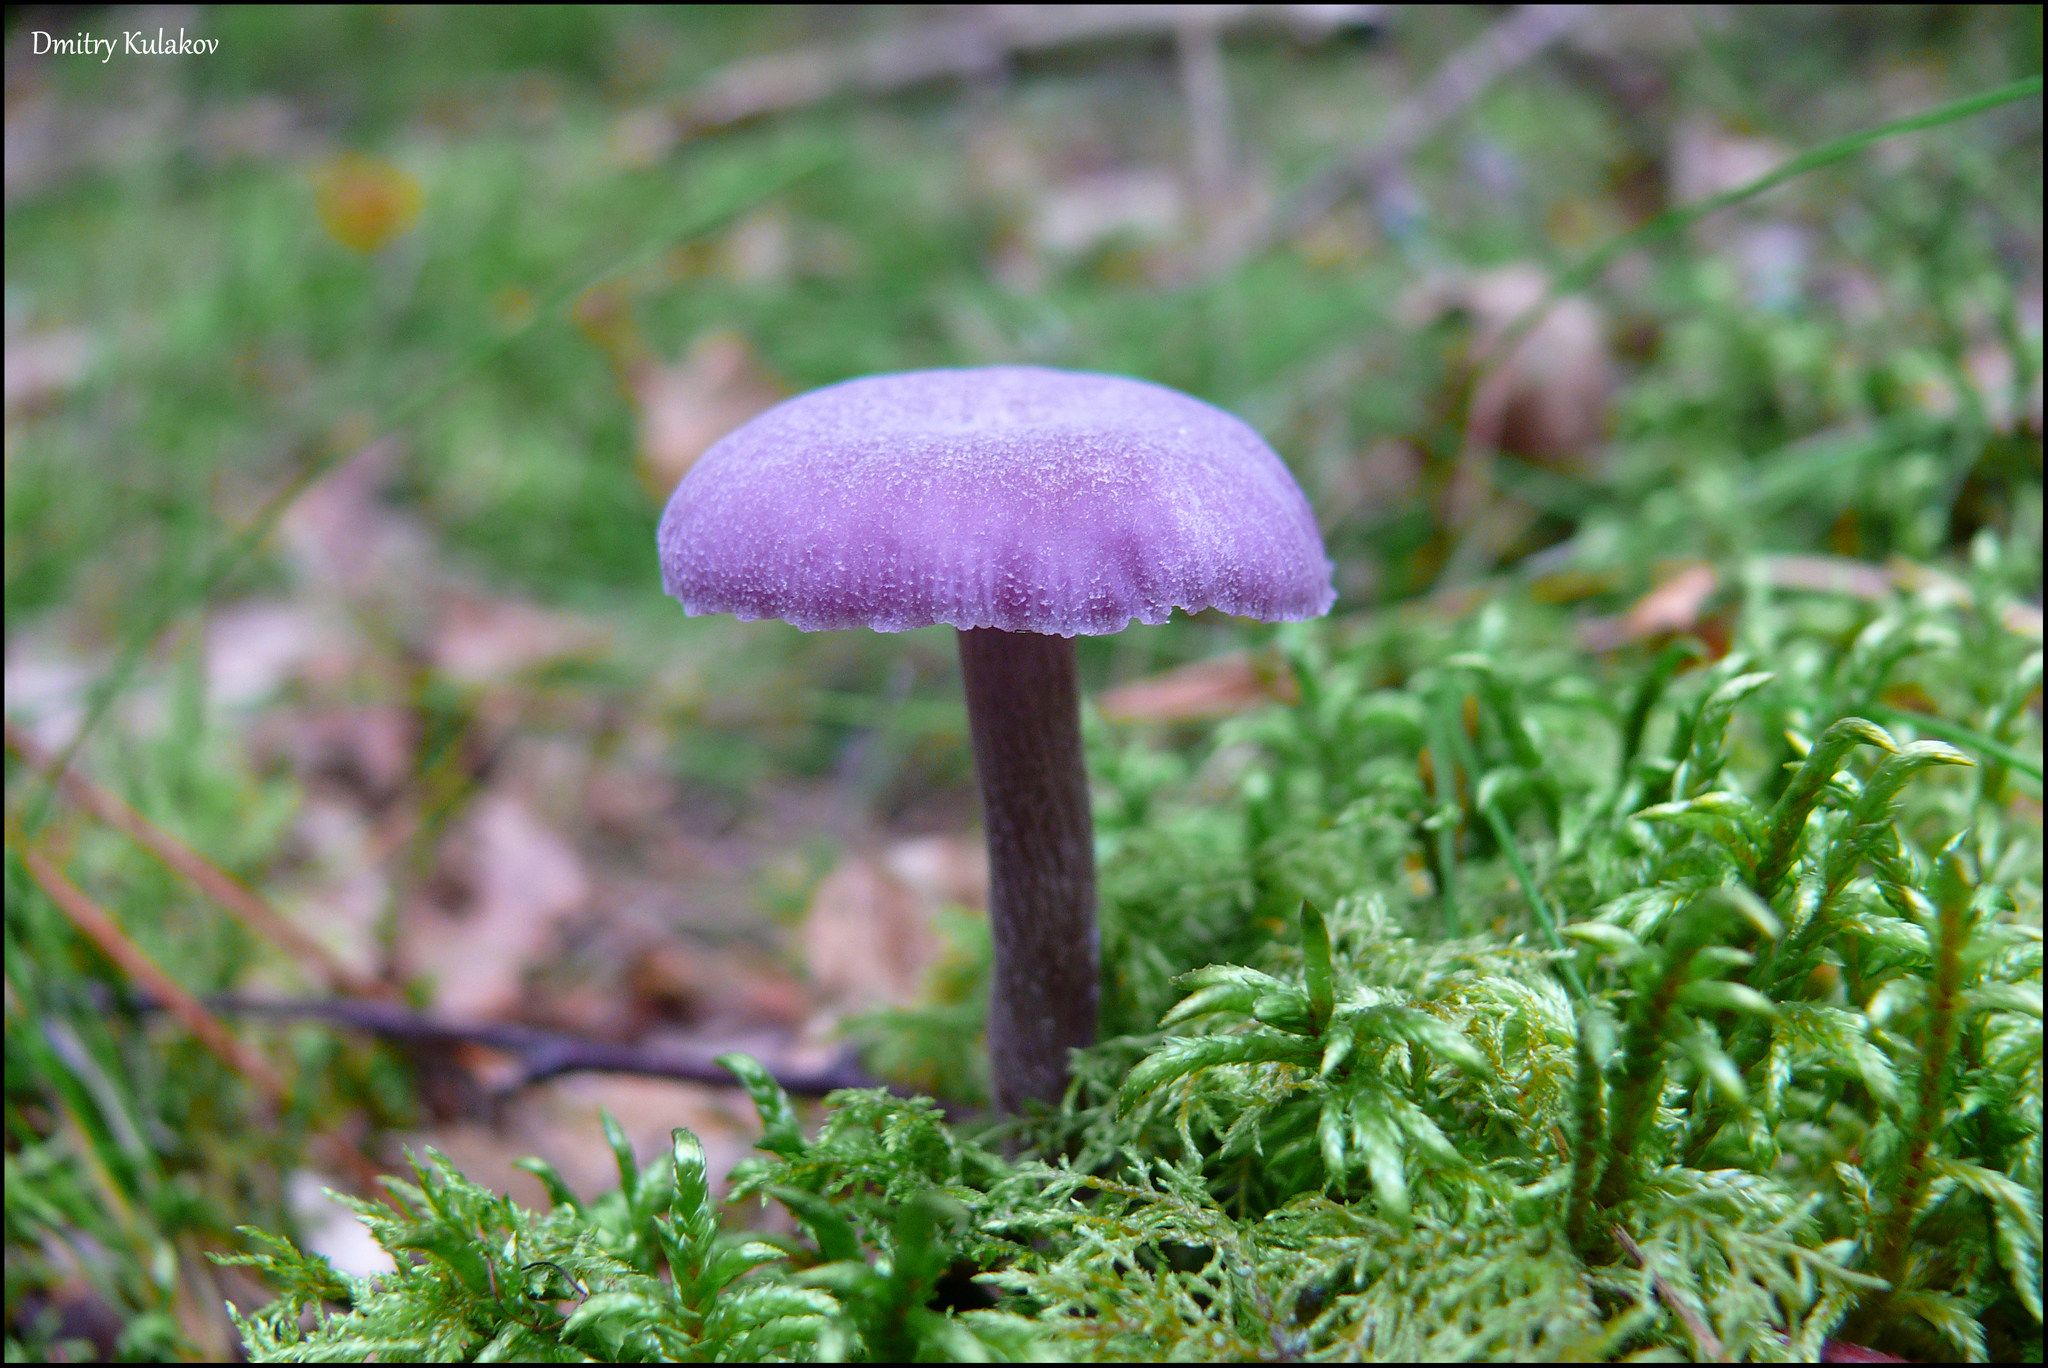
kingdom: Fungi
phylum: Basidiomycota
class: Agaricomycetes
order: Agaricales
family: Hydnangiaceae
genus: Laccaria
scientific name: Laccaria amethystina
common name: Amethyst deceiver
